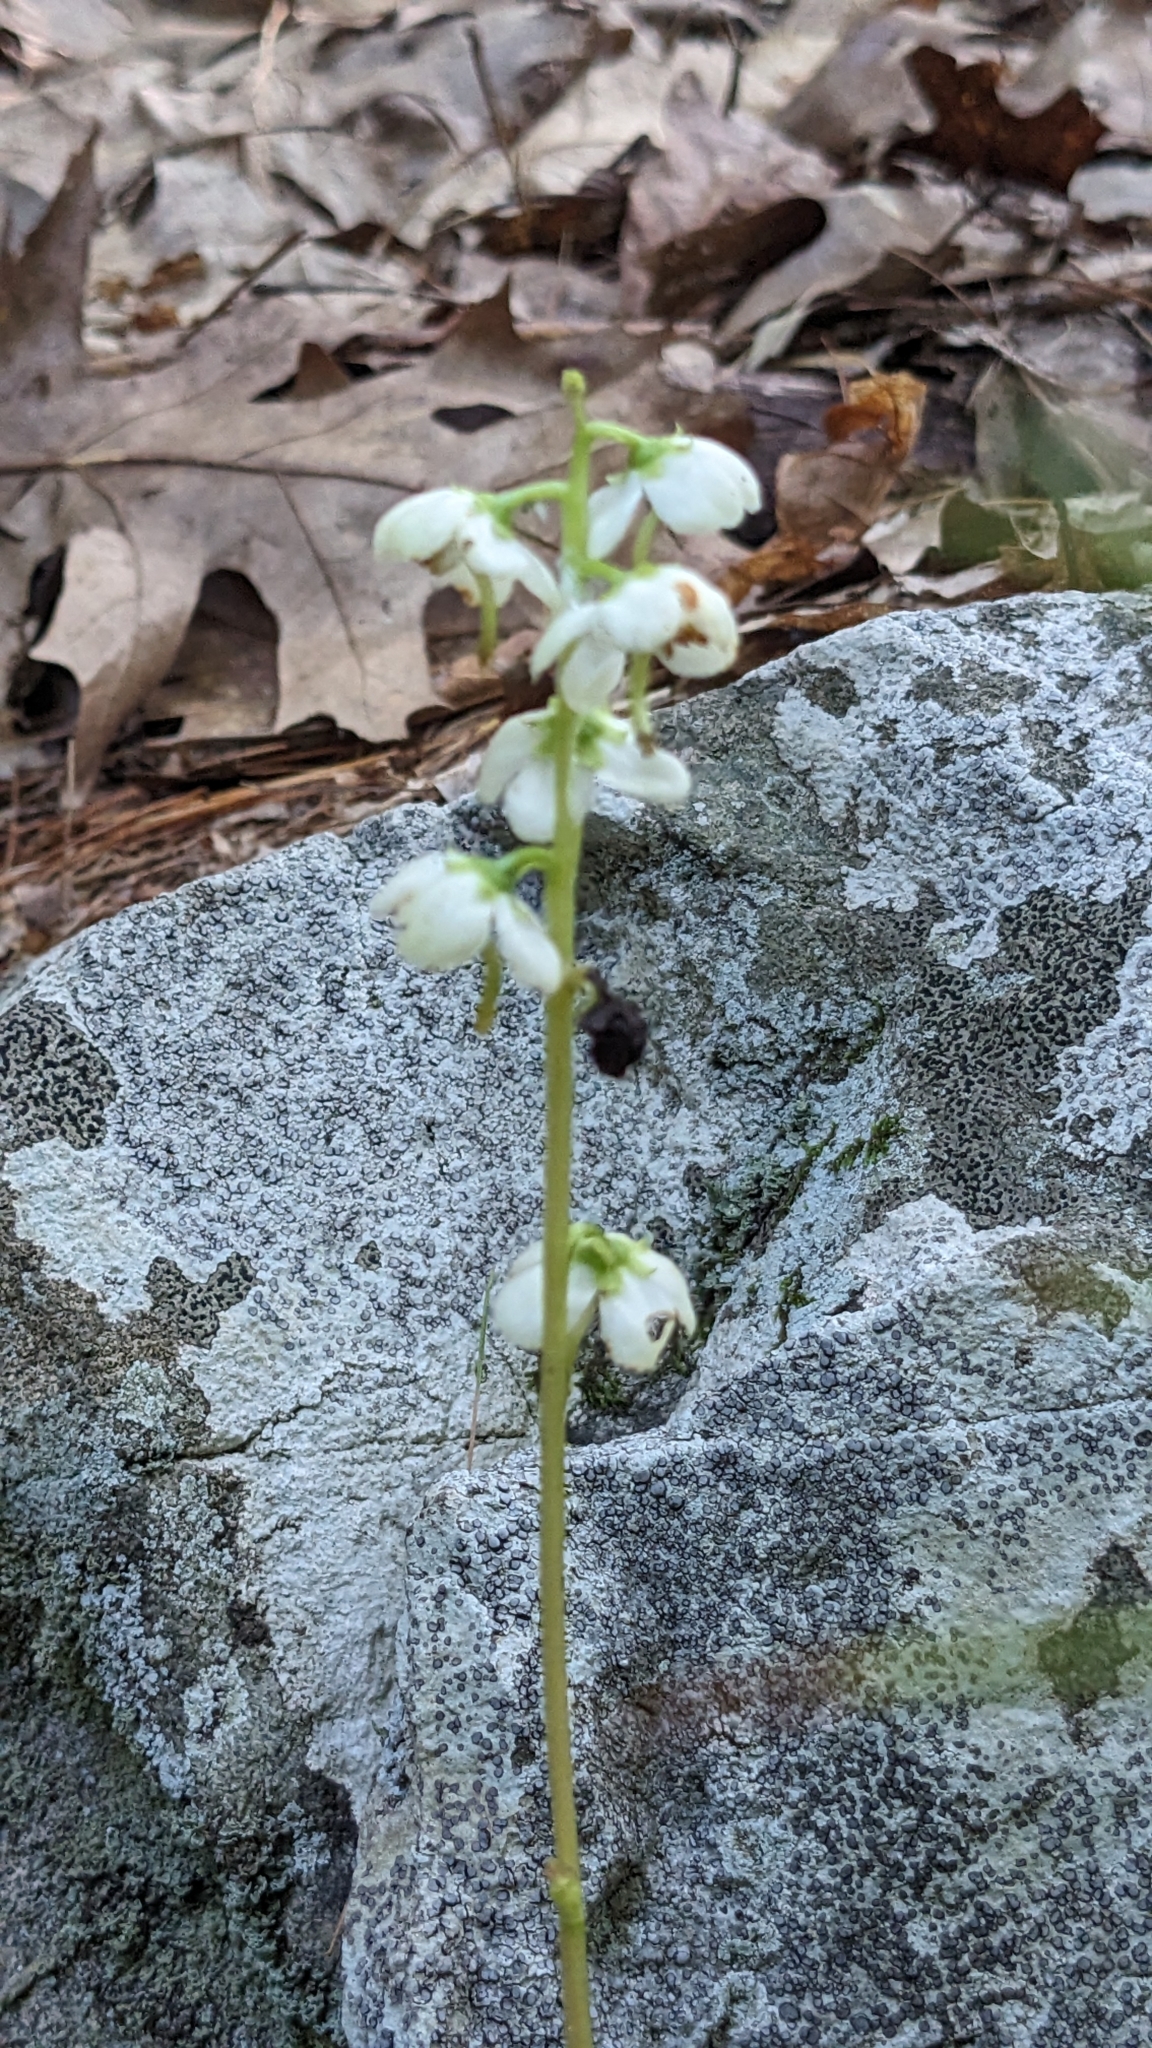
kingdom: Plantae
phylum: Tracheophyta
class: Magnoliopsida
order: Ericales
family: Ericaceae
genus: Pyrola
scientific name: Pyrola americana
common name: American wintergreen
